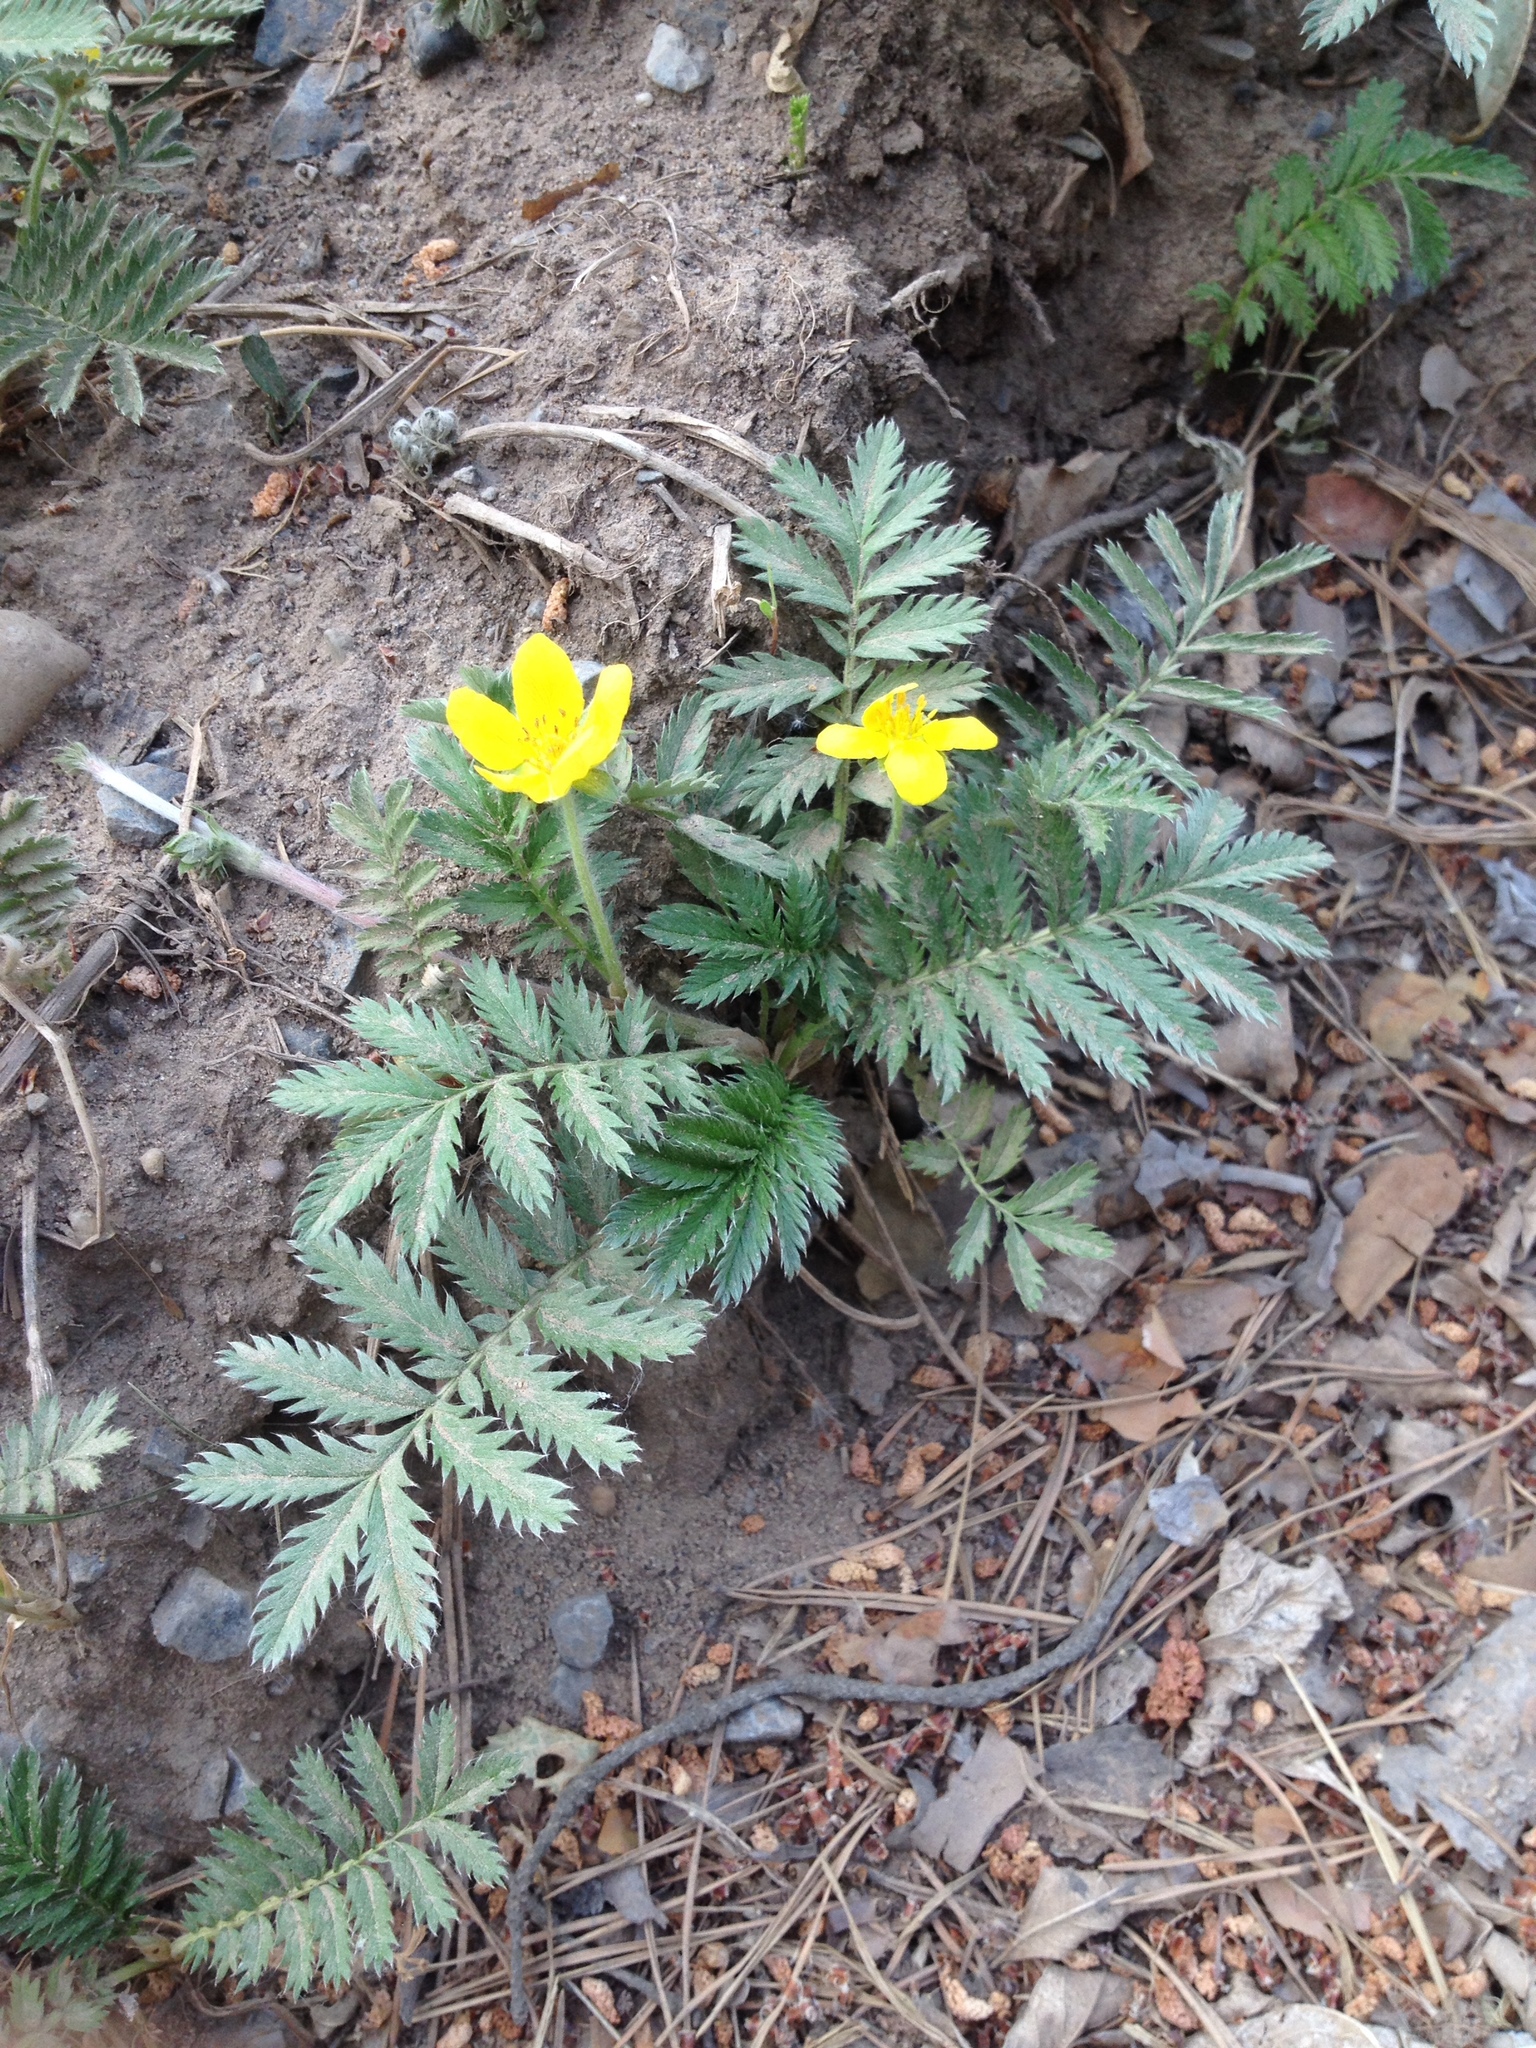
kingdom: Plantae
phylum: Tracheophyta
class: Magnoliopsida
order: Rosales
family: Rosaceae
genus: Argentina
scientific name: Argentina anserina
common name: Common silverweed
